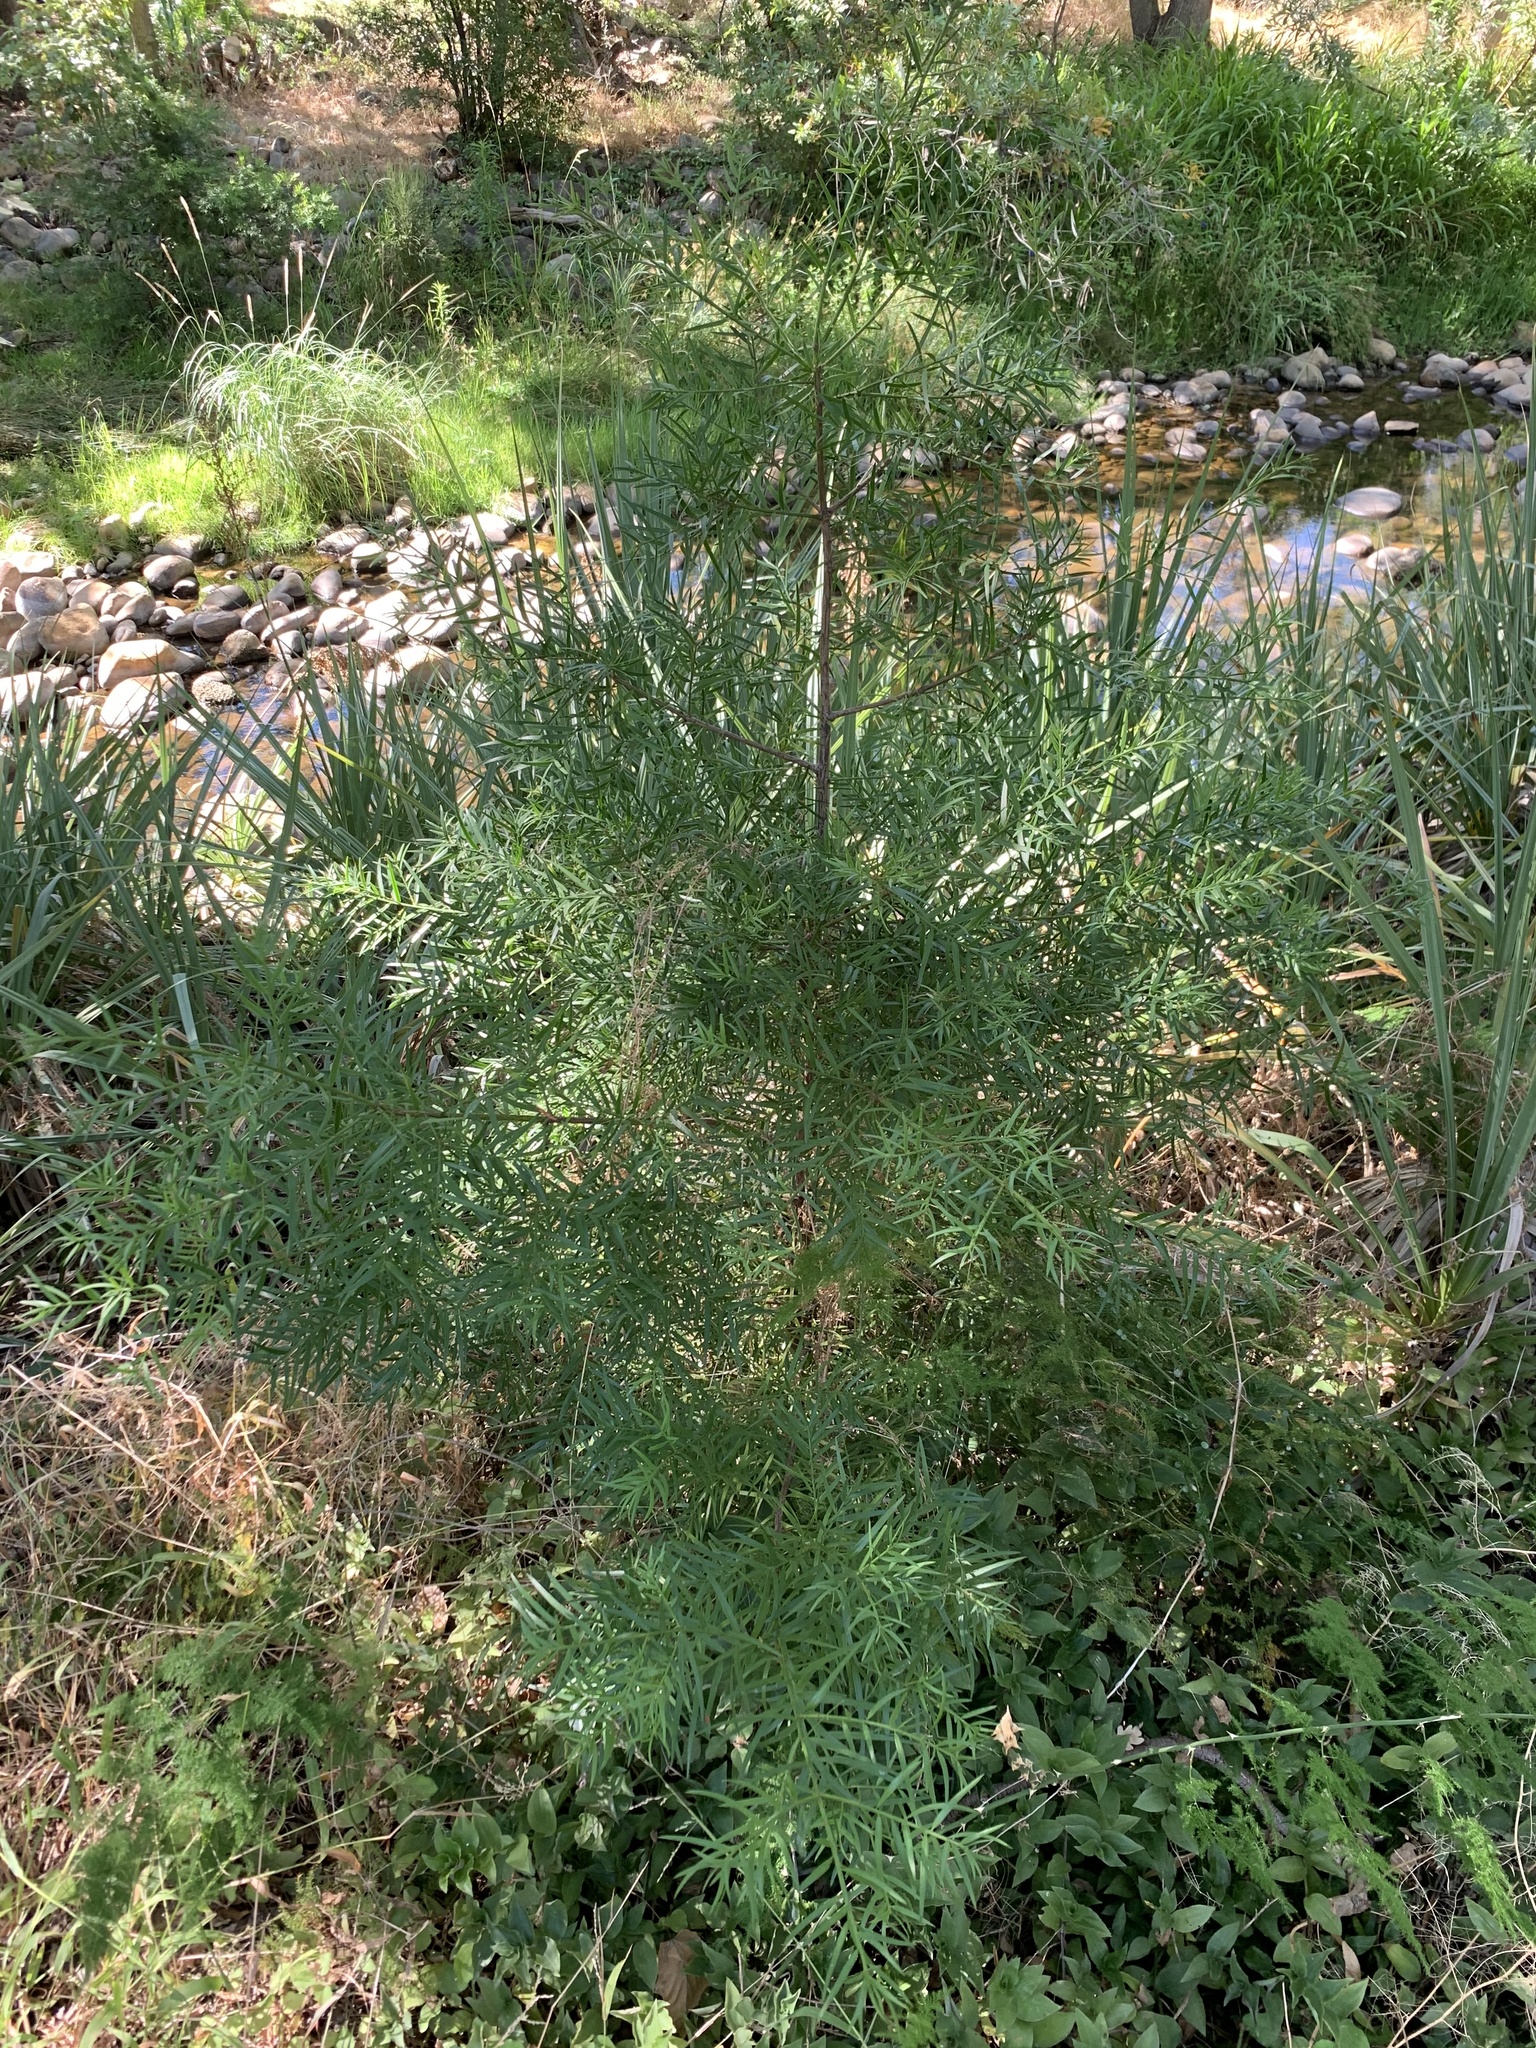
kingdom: Plantae
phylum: Tracheophyta
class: Pinopsida
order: Pinales
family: Podocarpaceae
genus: Afrocarpus
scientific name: Afrocarpus falcatus
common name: Bastard yellowwood
